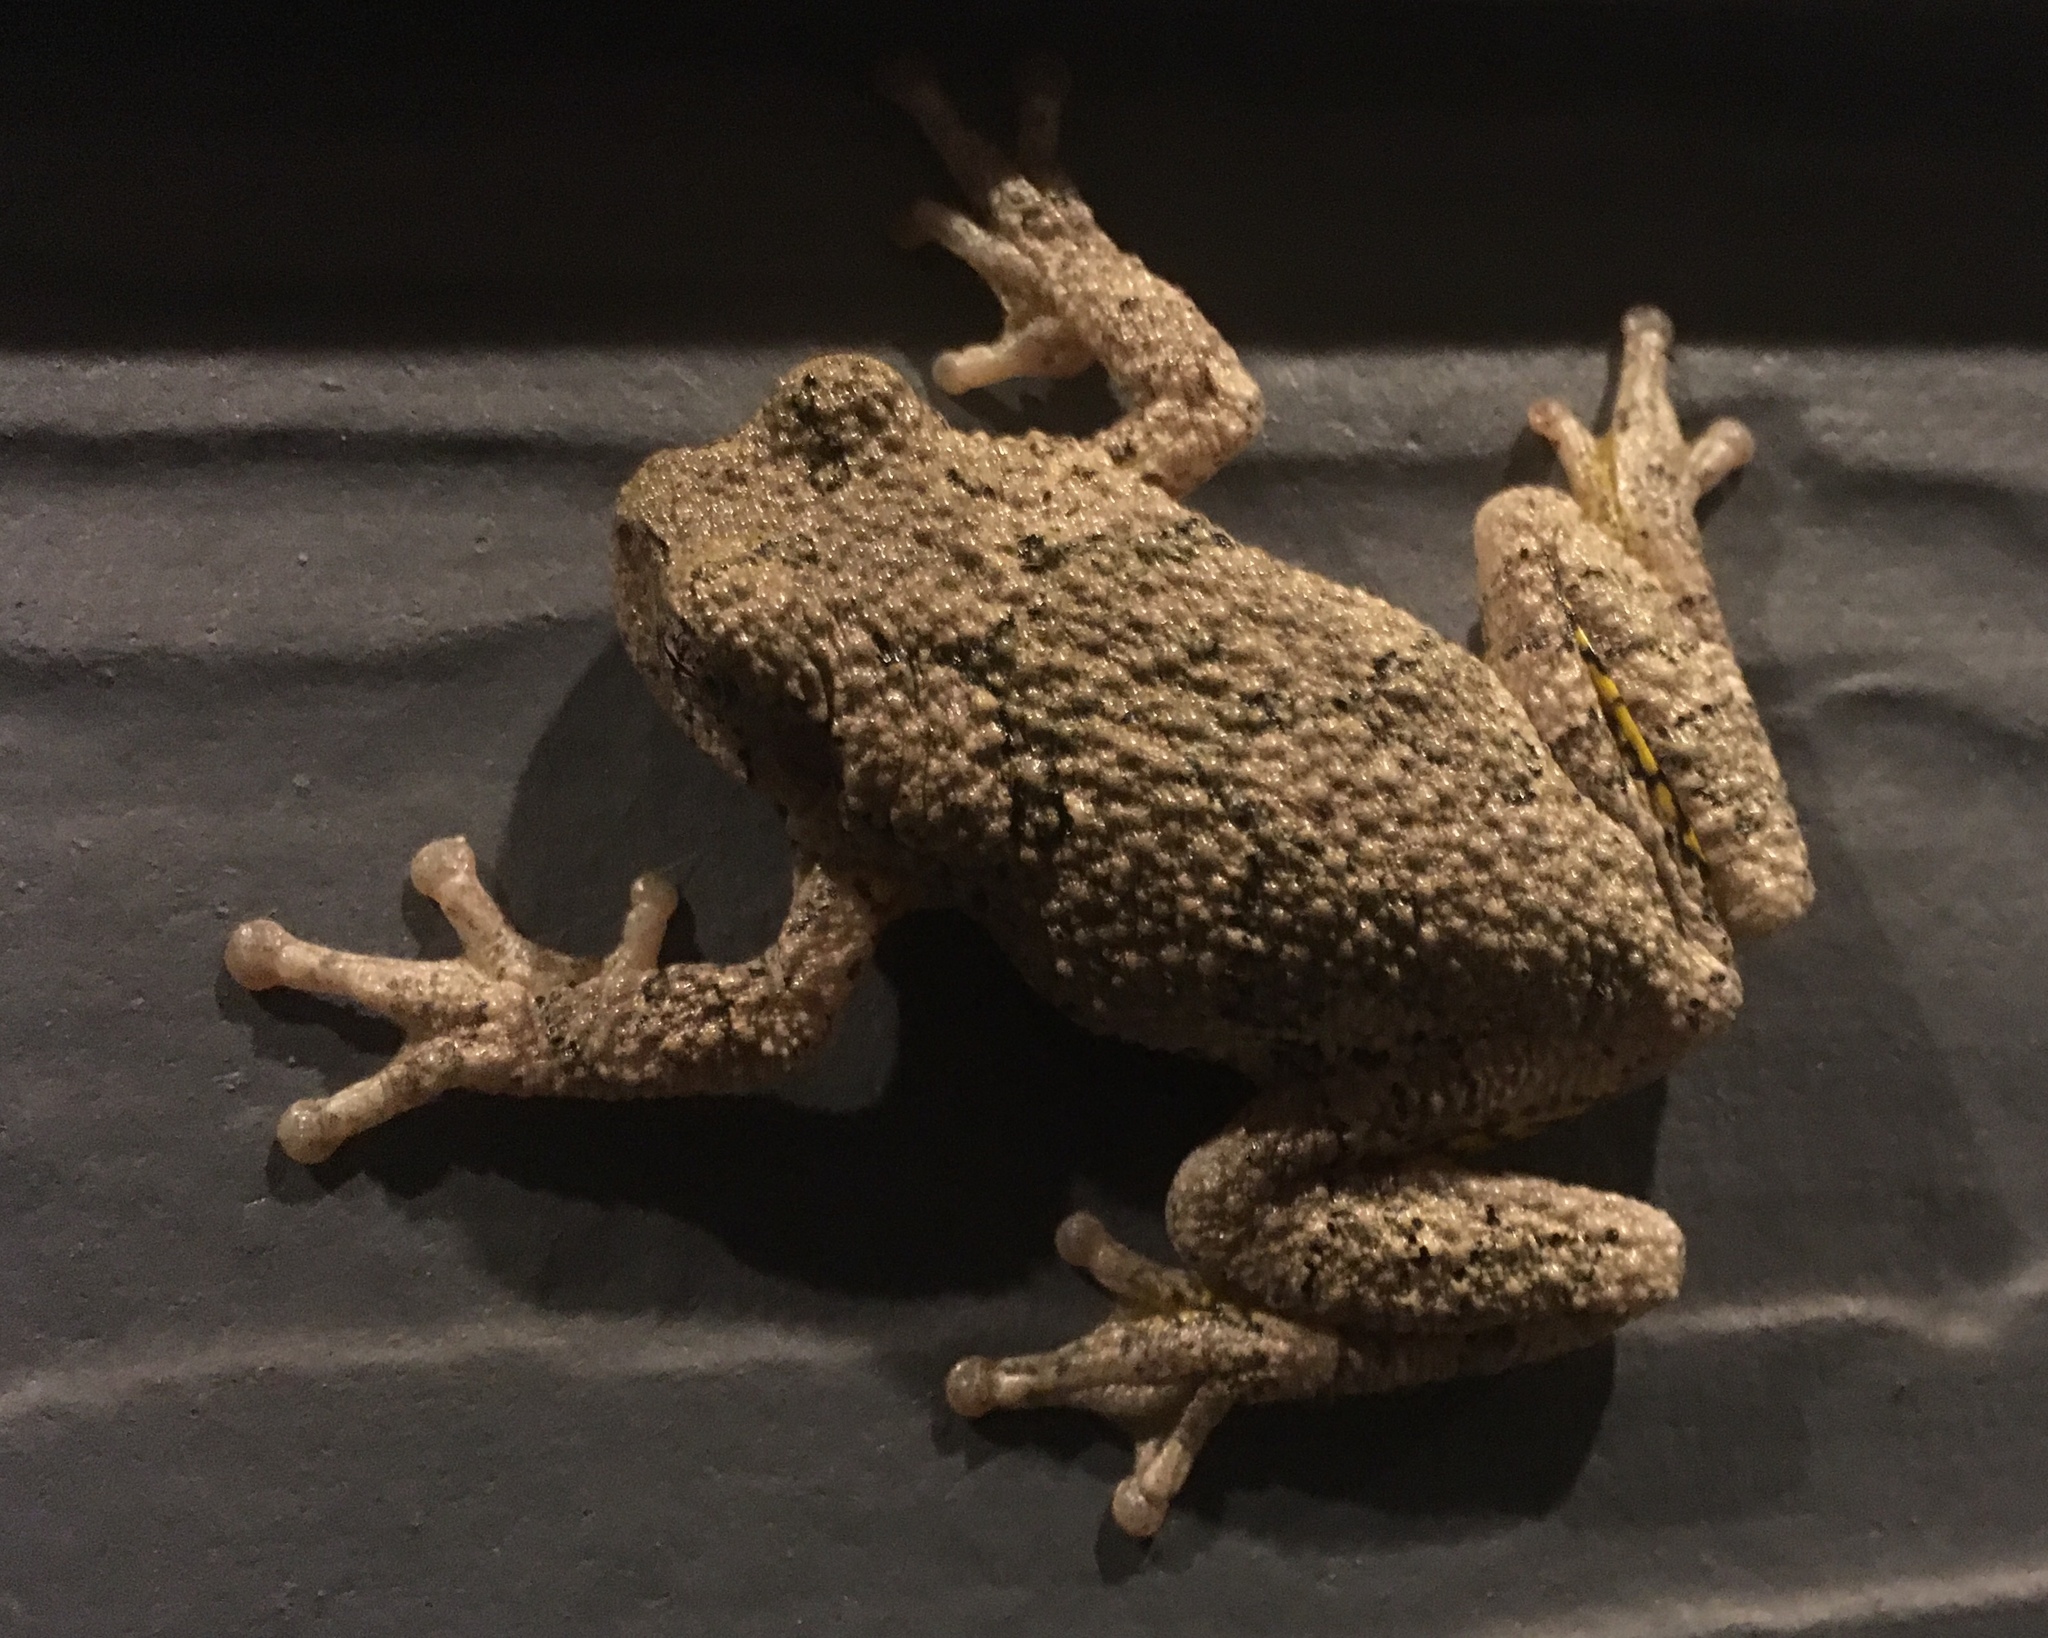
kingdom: Animalia
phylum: Chordata
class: Amphibia
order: Anura
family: Hylidae
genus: Hyla
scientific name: Hyla
